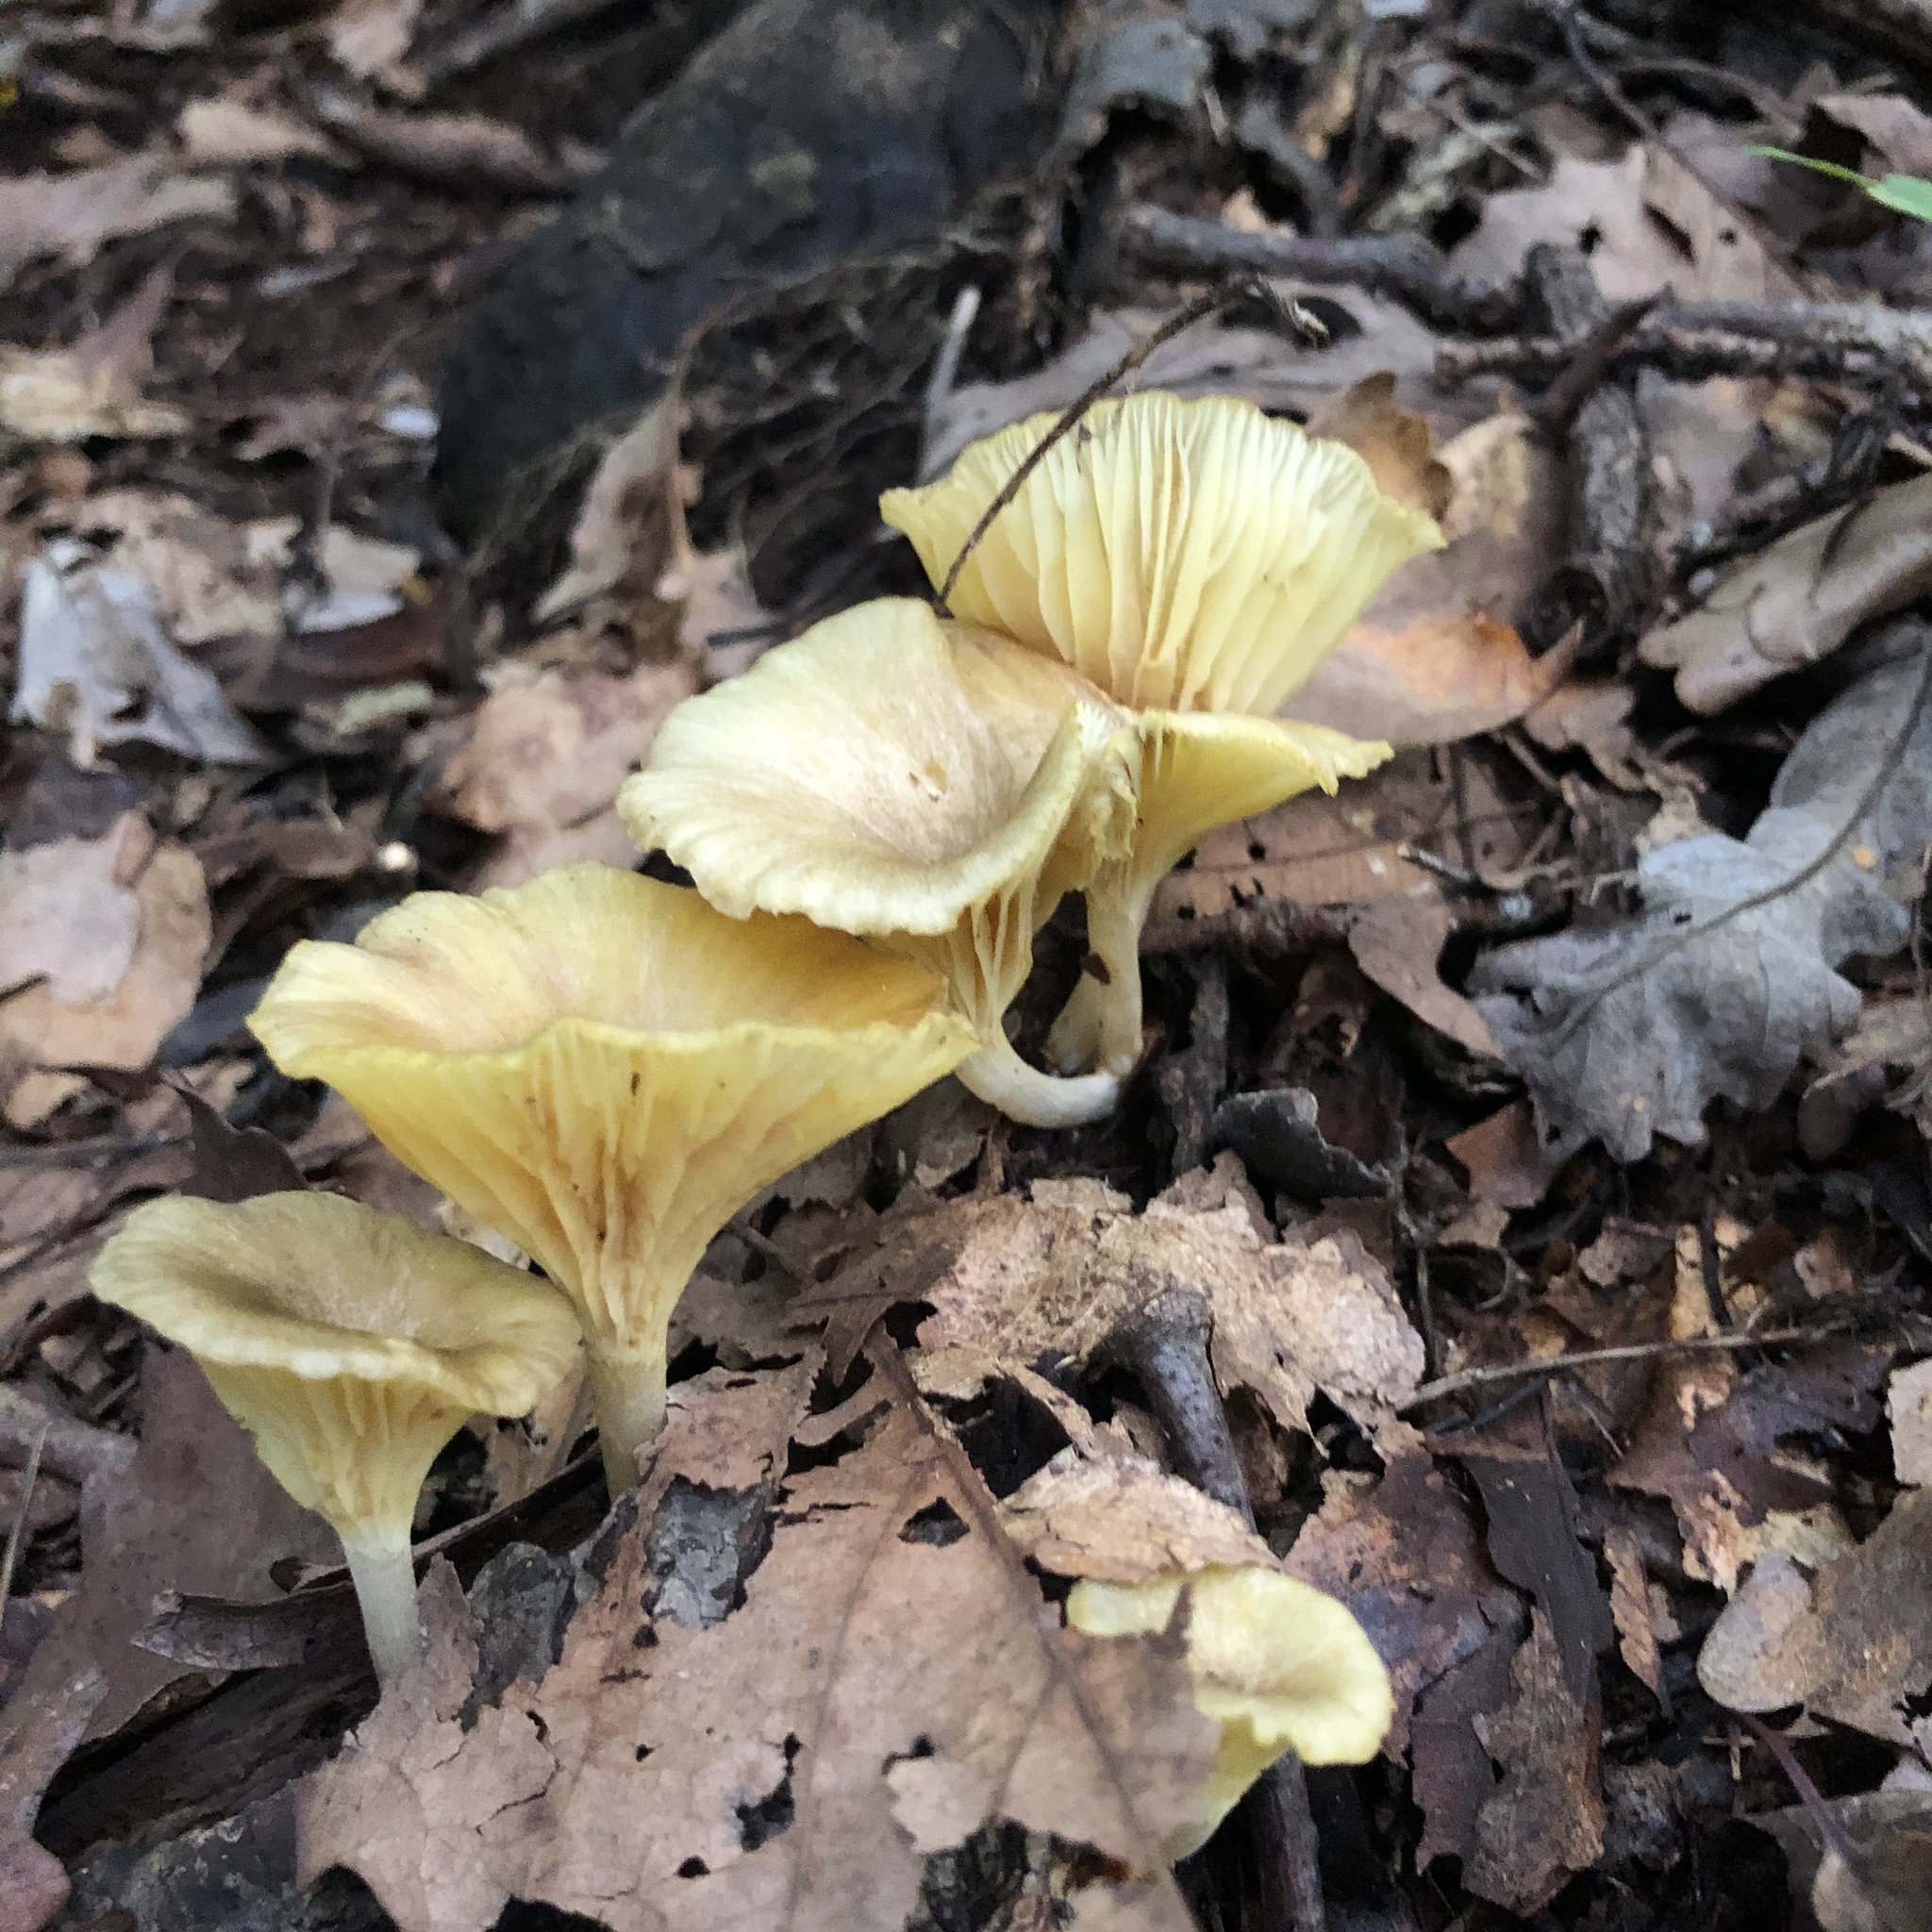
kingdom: Fungi
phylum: Basidiomycota
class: Agaricomycetes
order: Agaricales
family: Marasmiaceae
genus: Gerronema
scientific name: Gerronema strombodes
